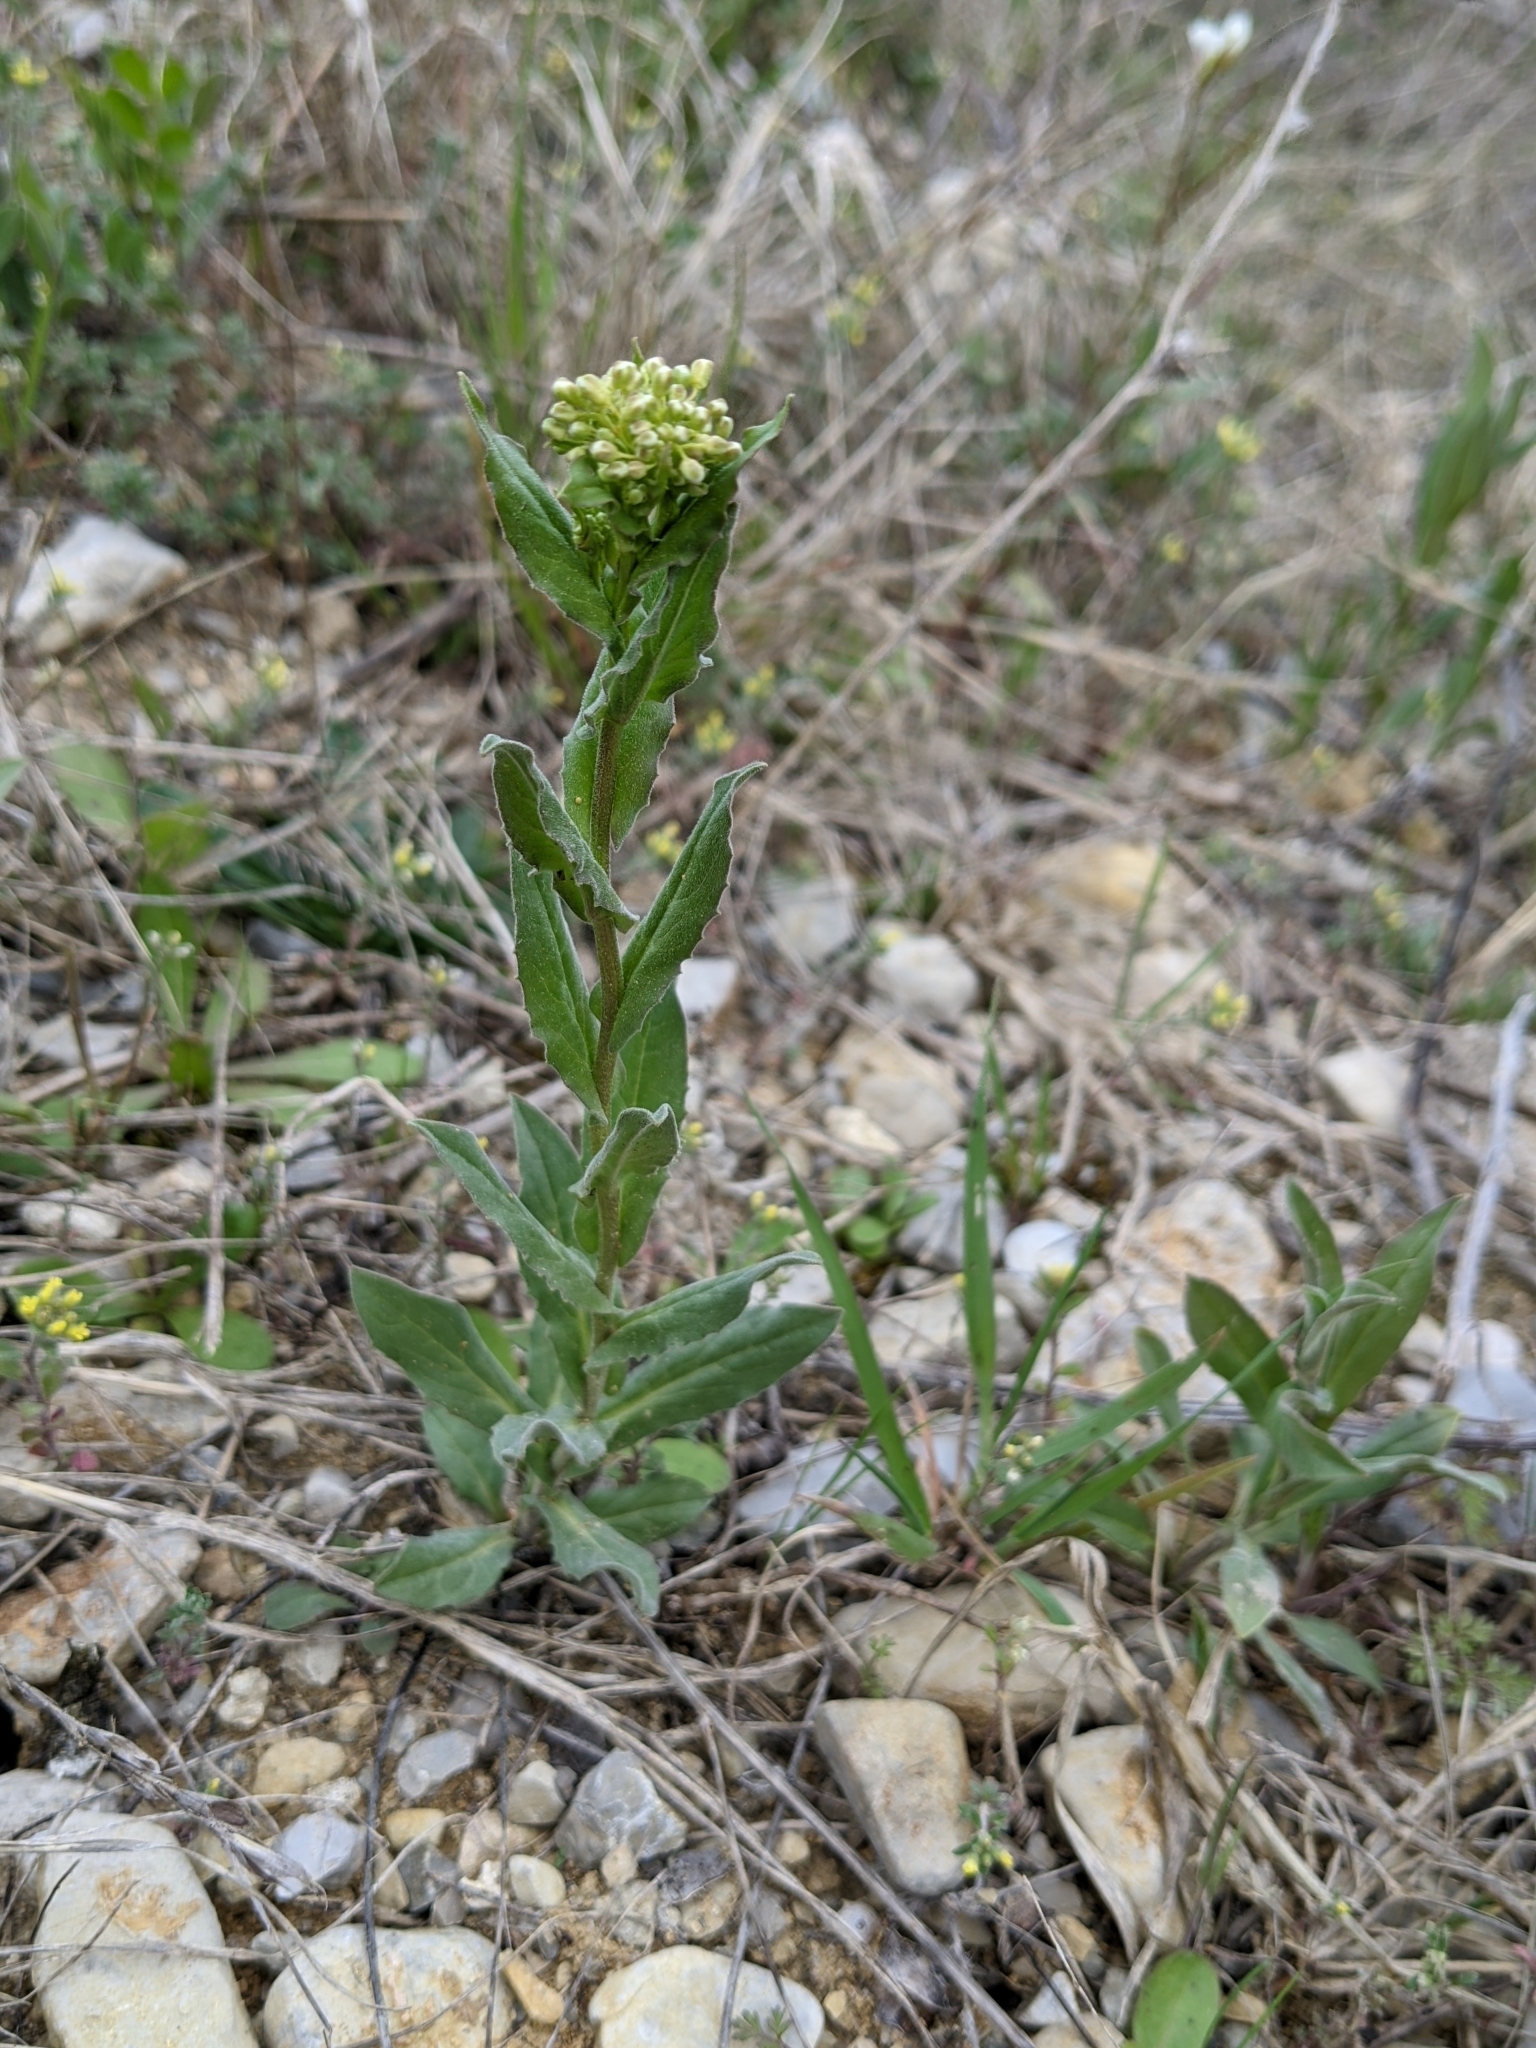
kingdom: Plantae
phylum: Tracheophyta
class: Magnoliopsida
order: Brassicales
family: Brassicaceae
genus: Lepidium
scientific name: Lepidium draba
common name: Hoary cress
